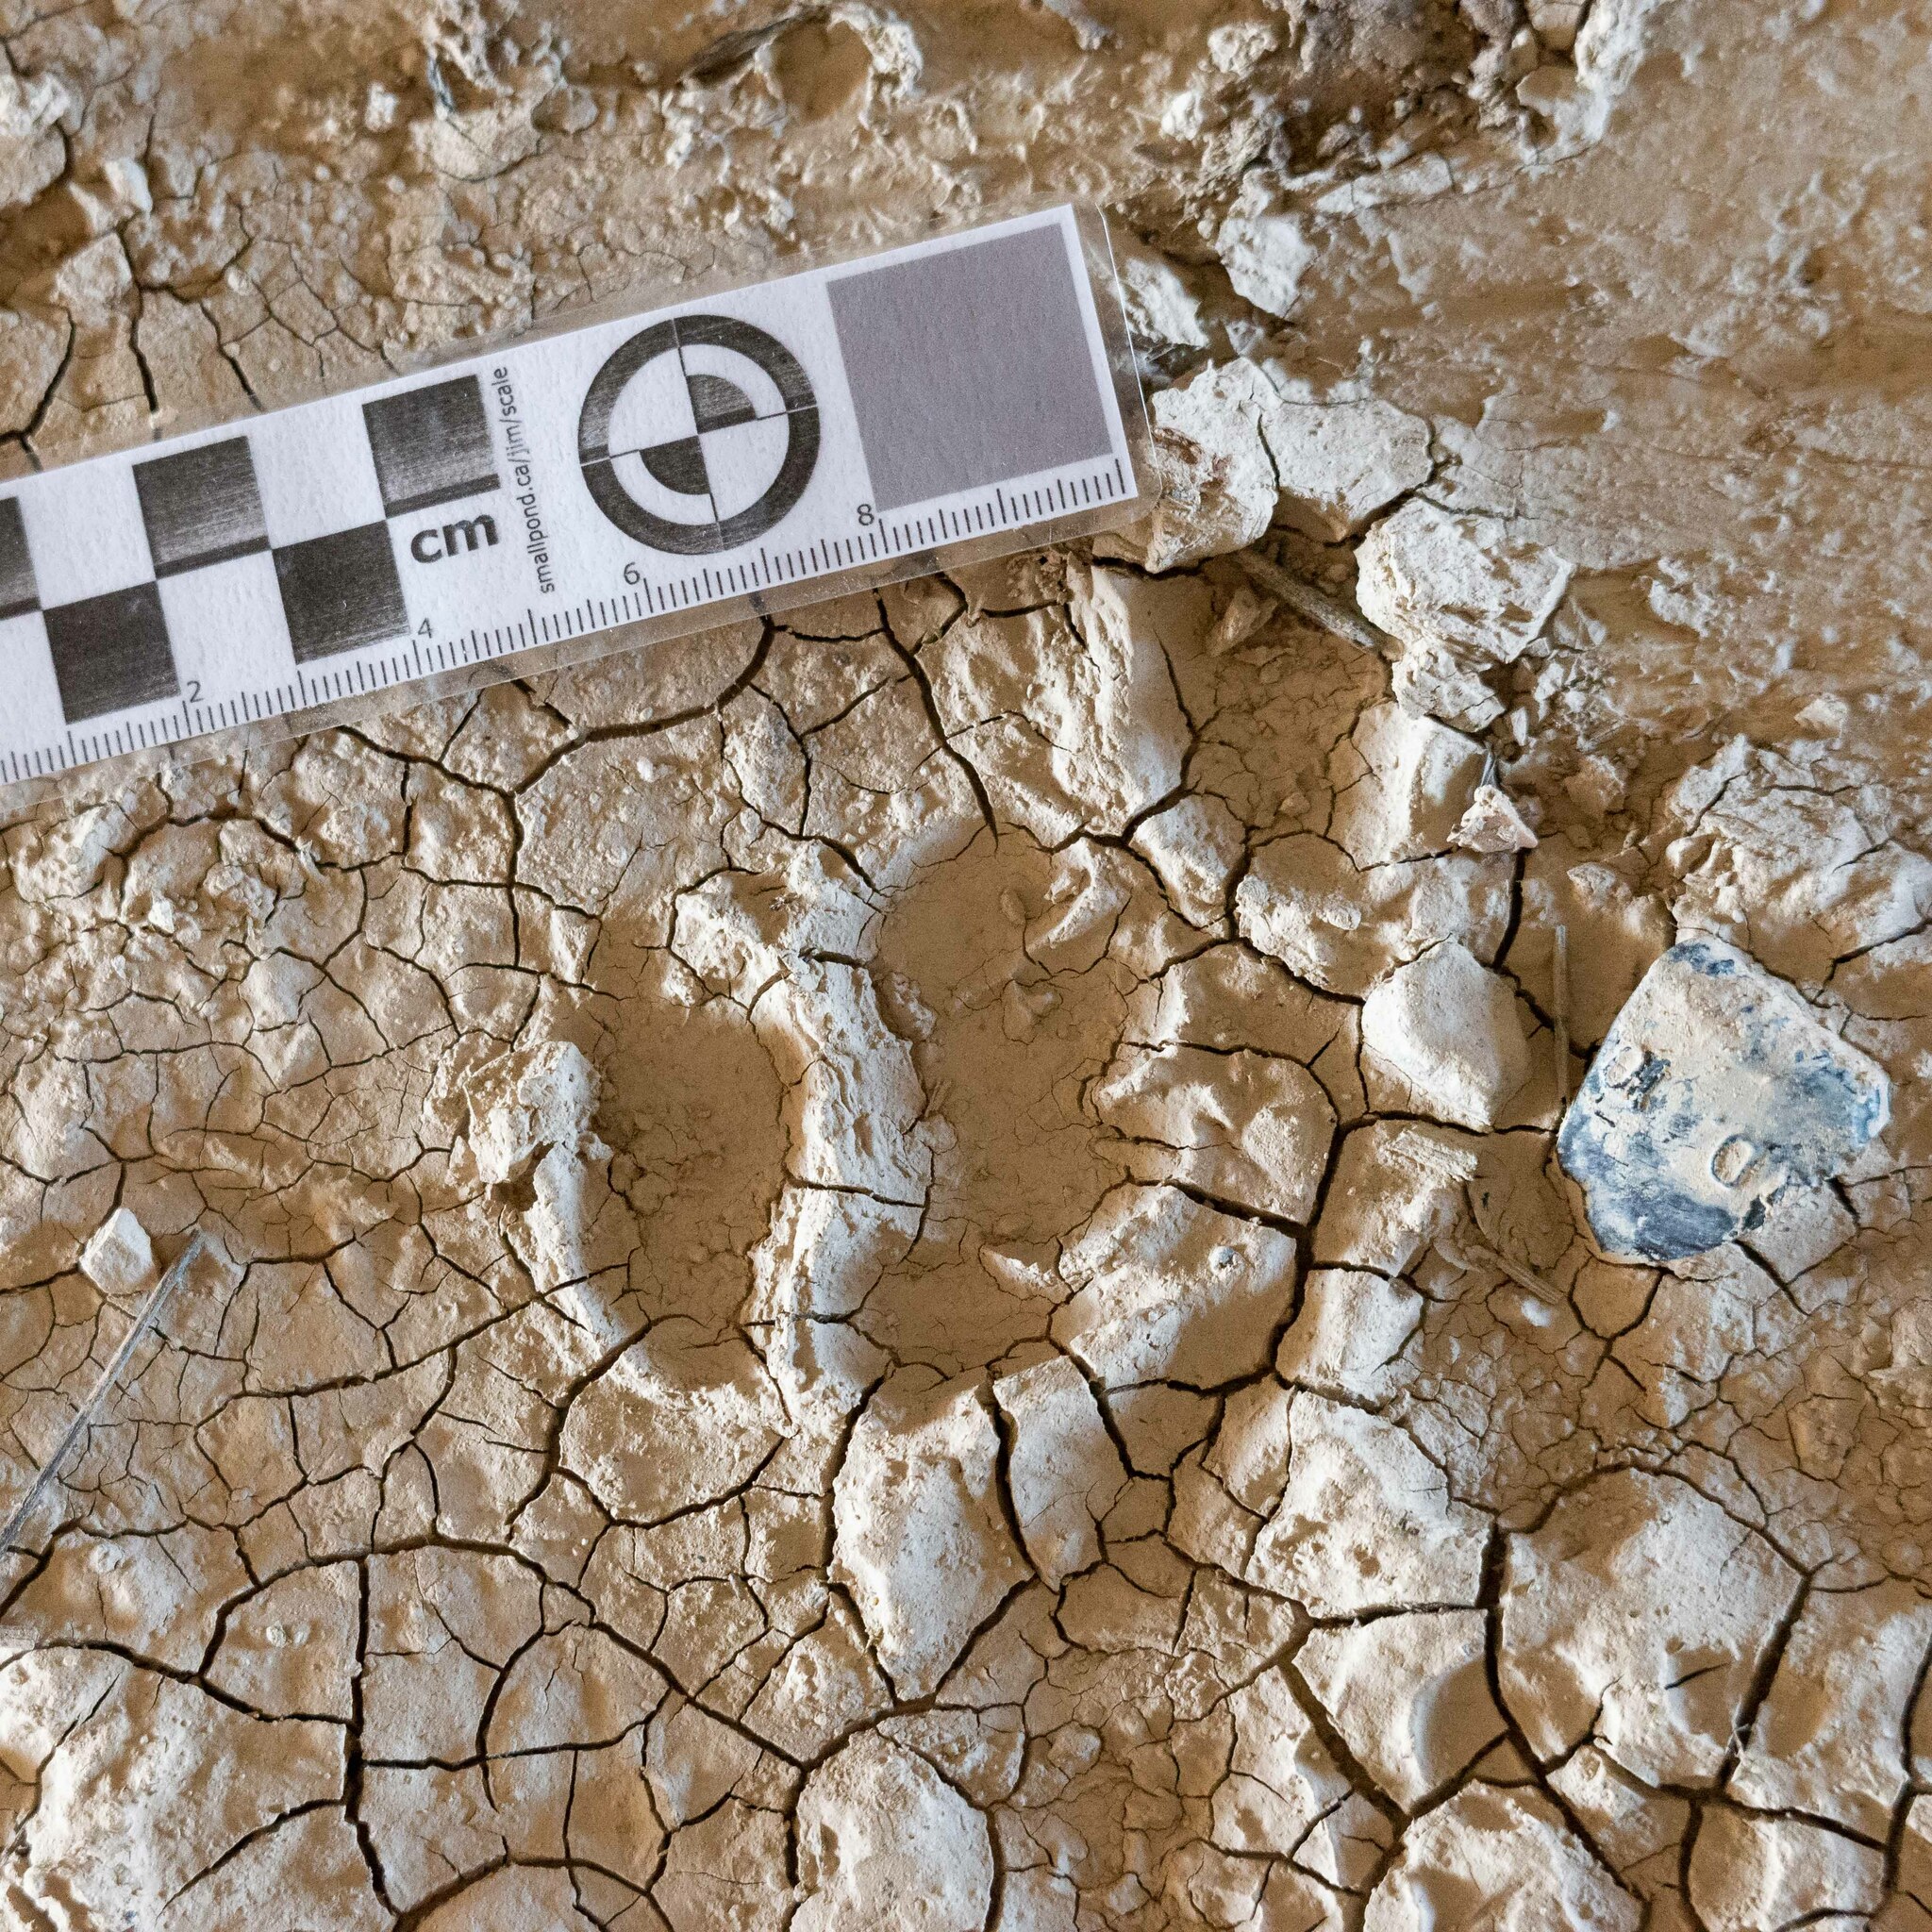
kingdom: Animalia
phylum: Chordata
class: Mammalia
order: Carnivora
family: Mustelidae
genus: Meles
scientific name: Meles meles
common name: Eurasian badger
